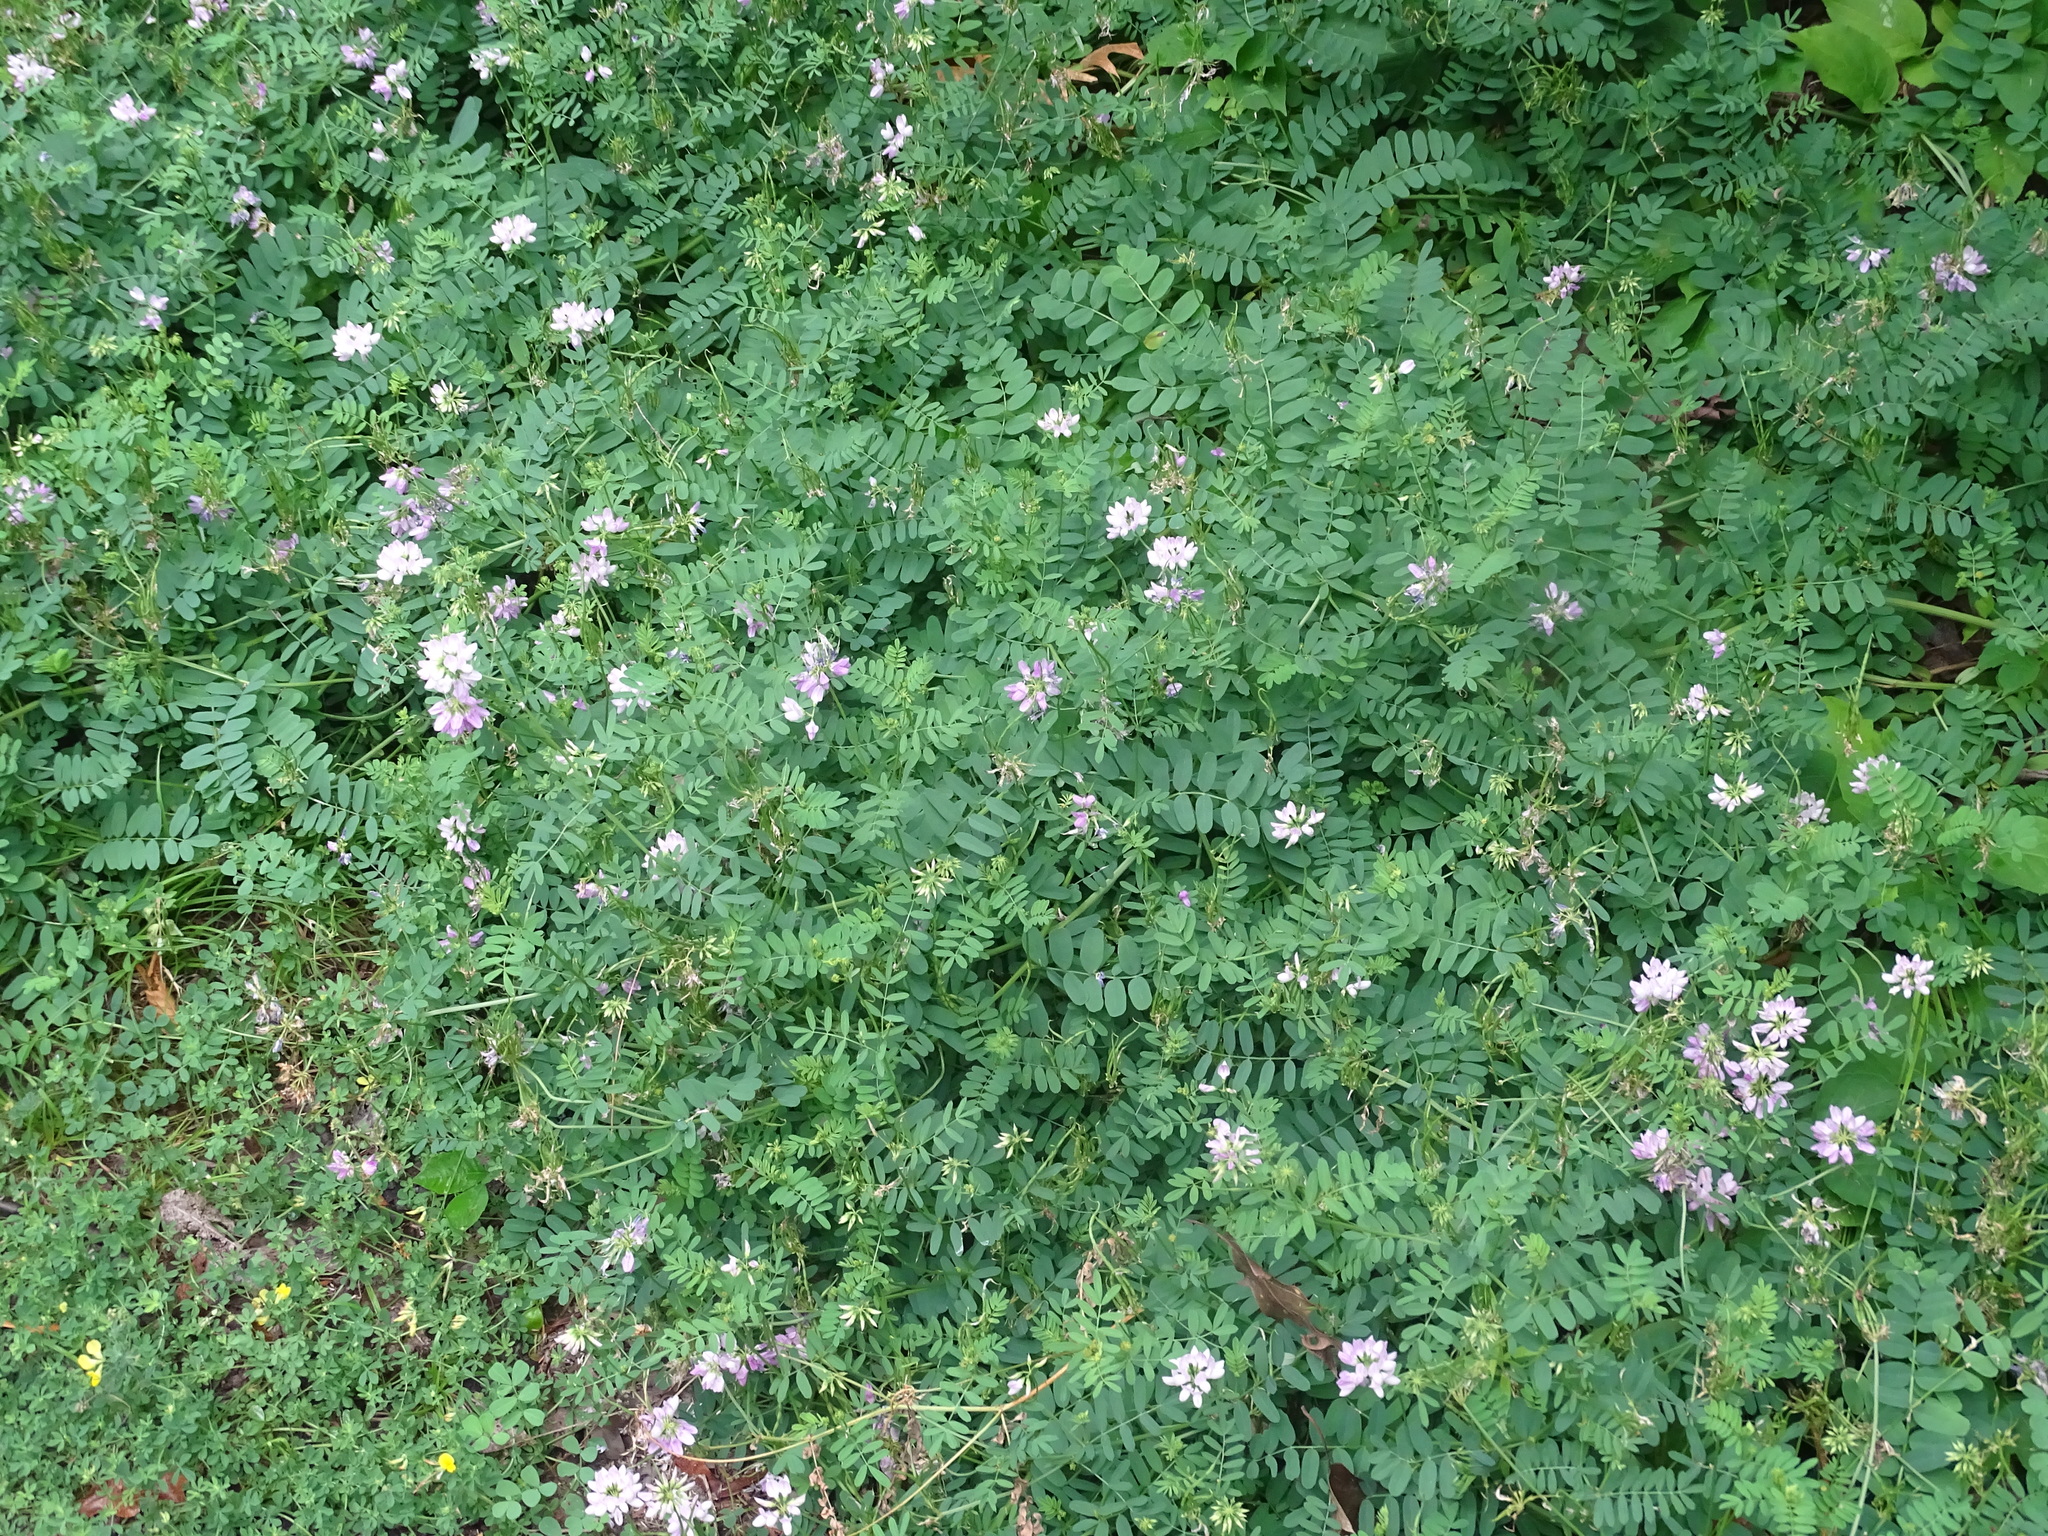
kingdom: Plantae
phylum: Tracheophyta
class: Magnoliopsida
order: Fabales
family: Fabaceae
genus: Coronilla
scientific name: Coronilla varia
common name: Crownvetch
